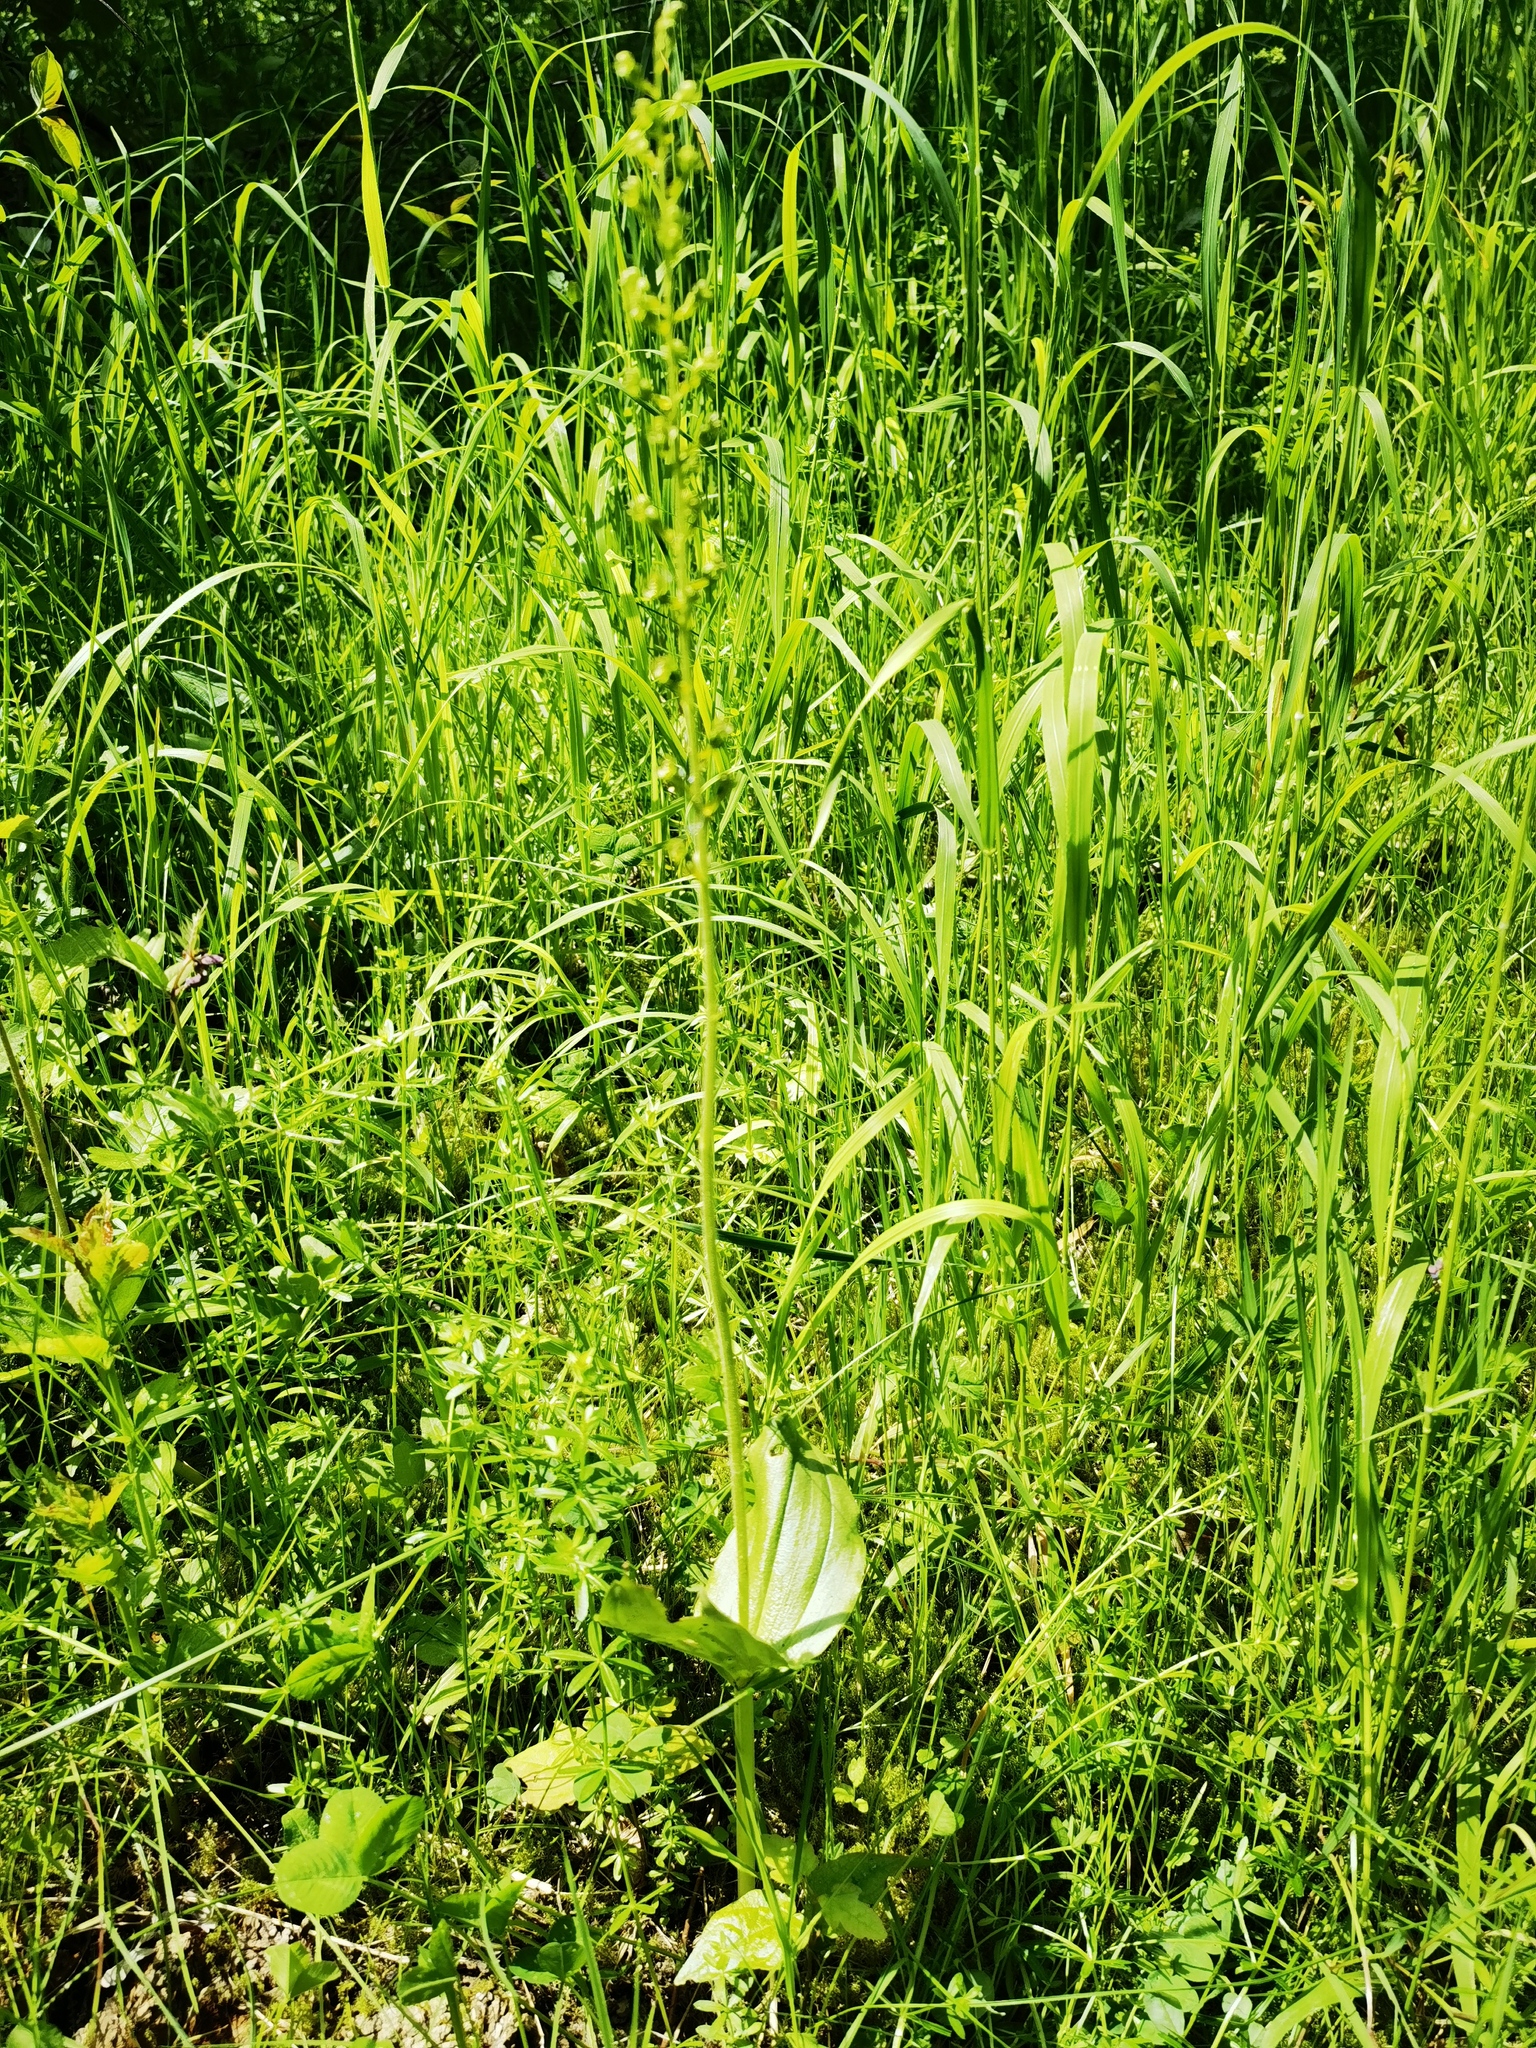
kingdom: Plantae
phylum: Tracheophyta
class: Liliopsida
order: Asparagales
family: Orchidaceae
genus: Neottia
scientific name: Neottia ovata
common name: Common twayblade
